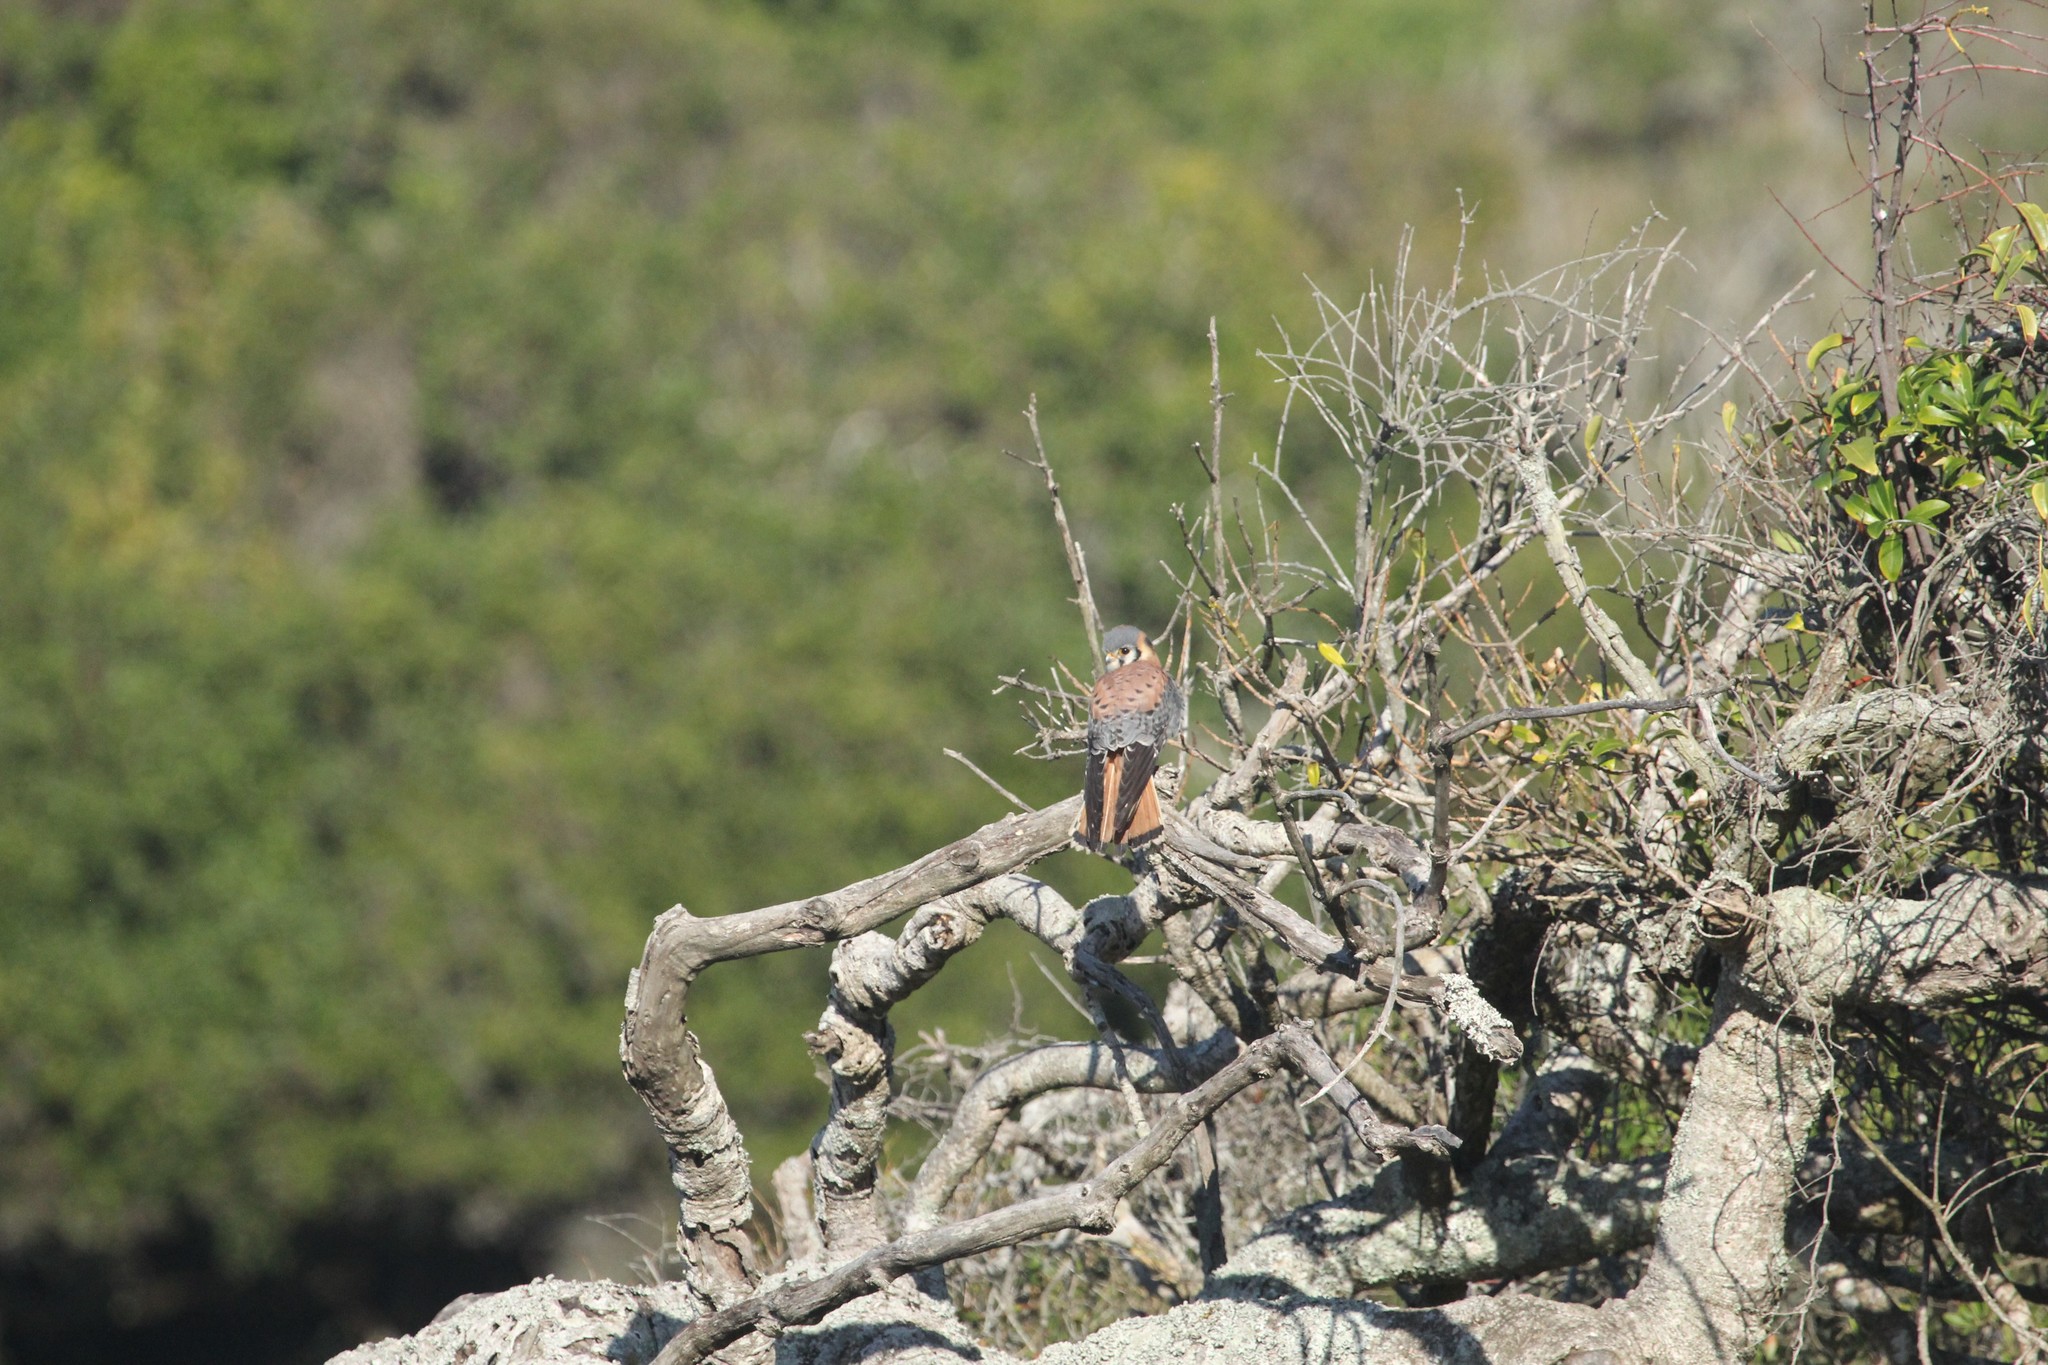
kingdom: Animalia
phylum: Chordata
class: Aves
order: Falconiformes
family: Falconidae
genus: Falco
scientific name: Falco sparverius
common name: American kestrel
